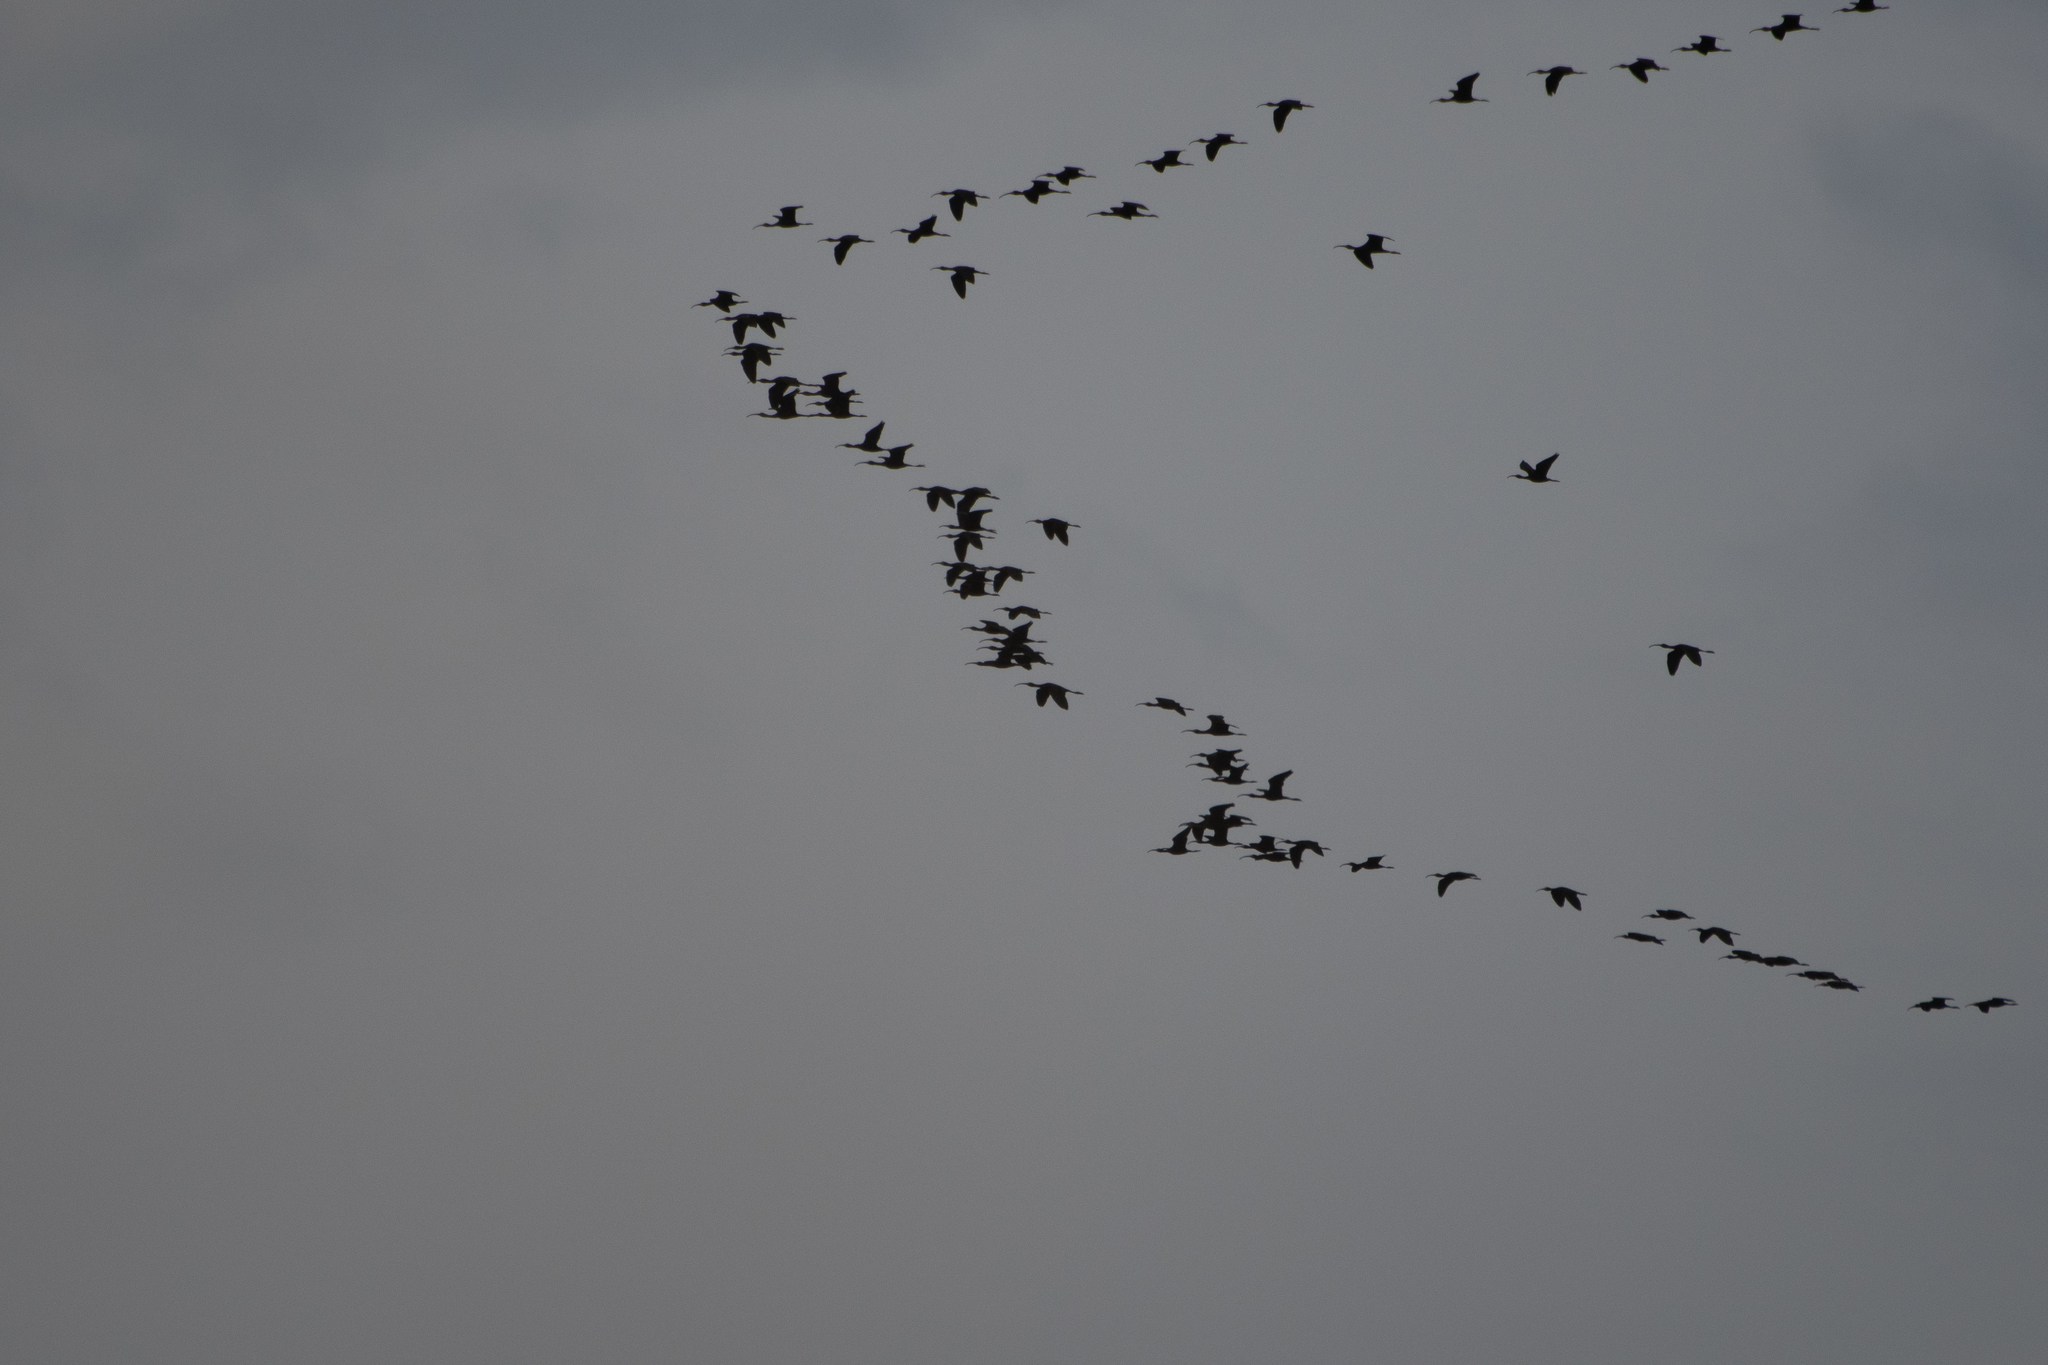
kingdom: Animalia
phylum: Chordata
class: Aves
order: Pelecaniformes
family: Threskiornithidae
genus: Plegadis
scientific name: Plegadis chihi
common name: White-faced ibis
